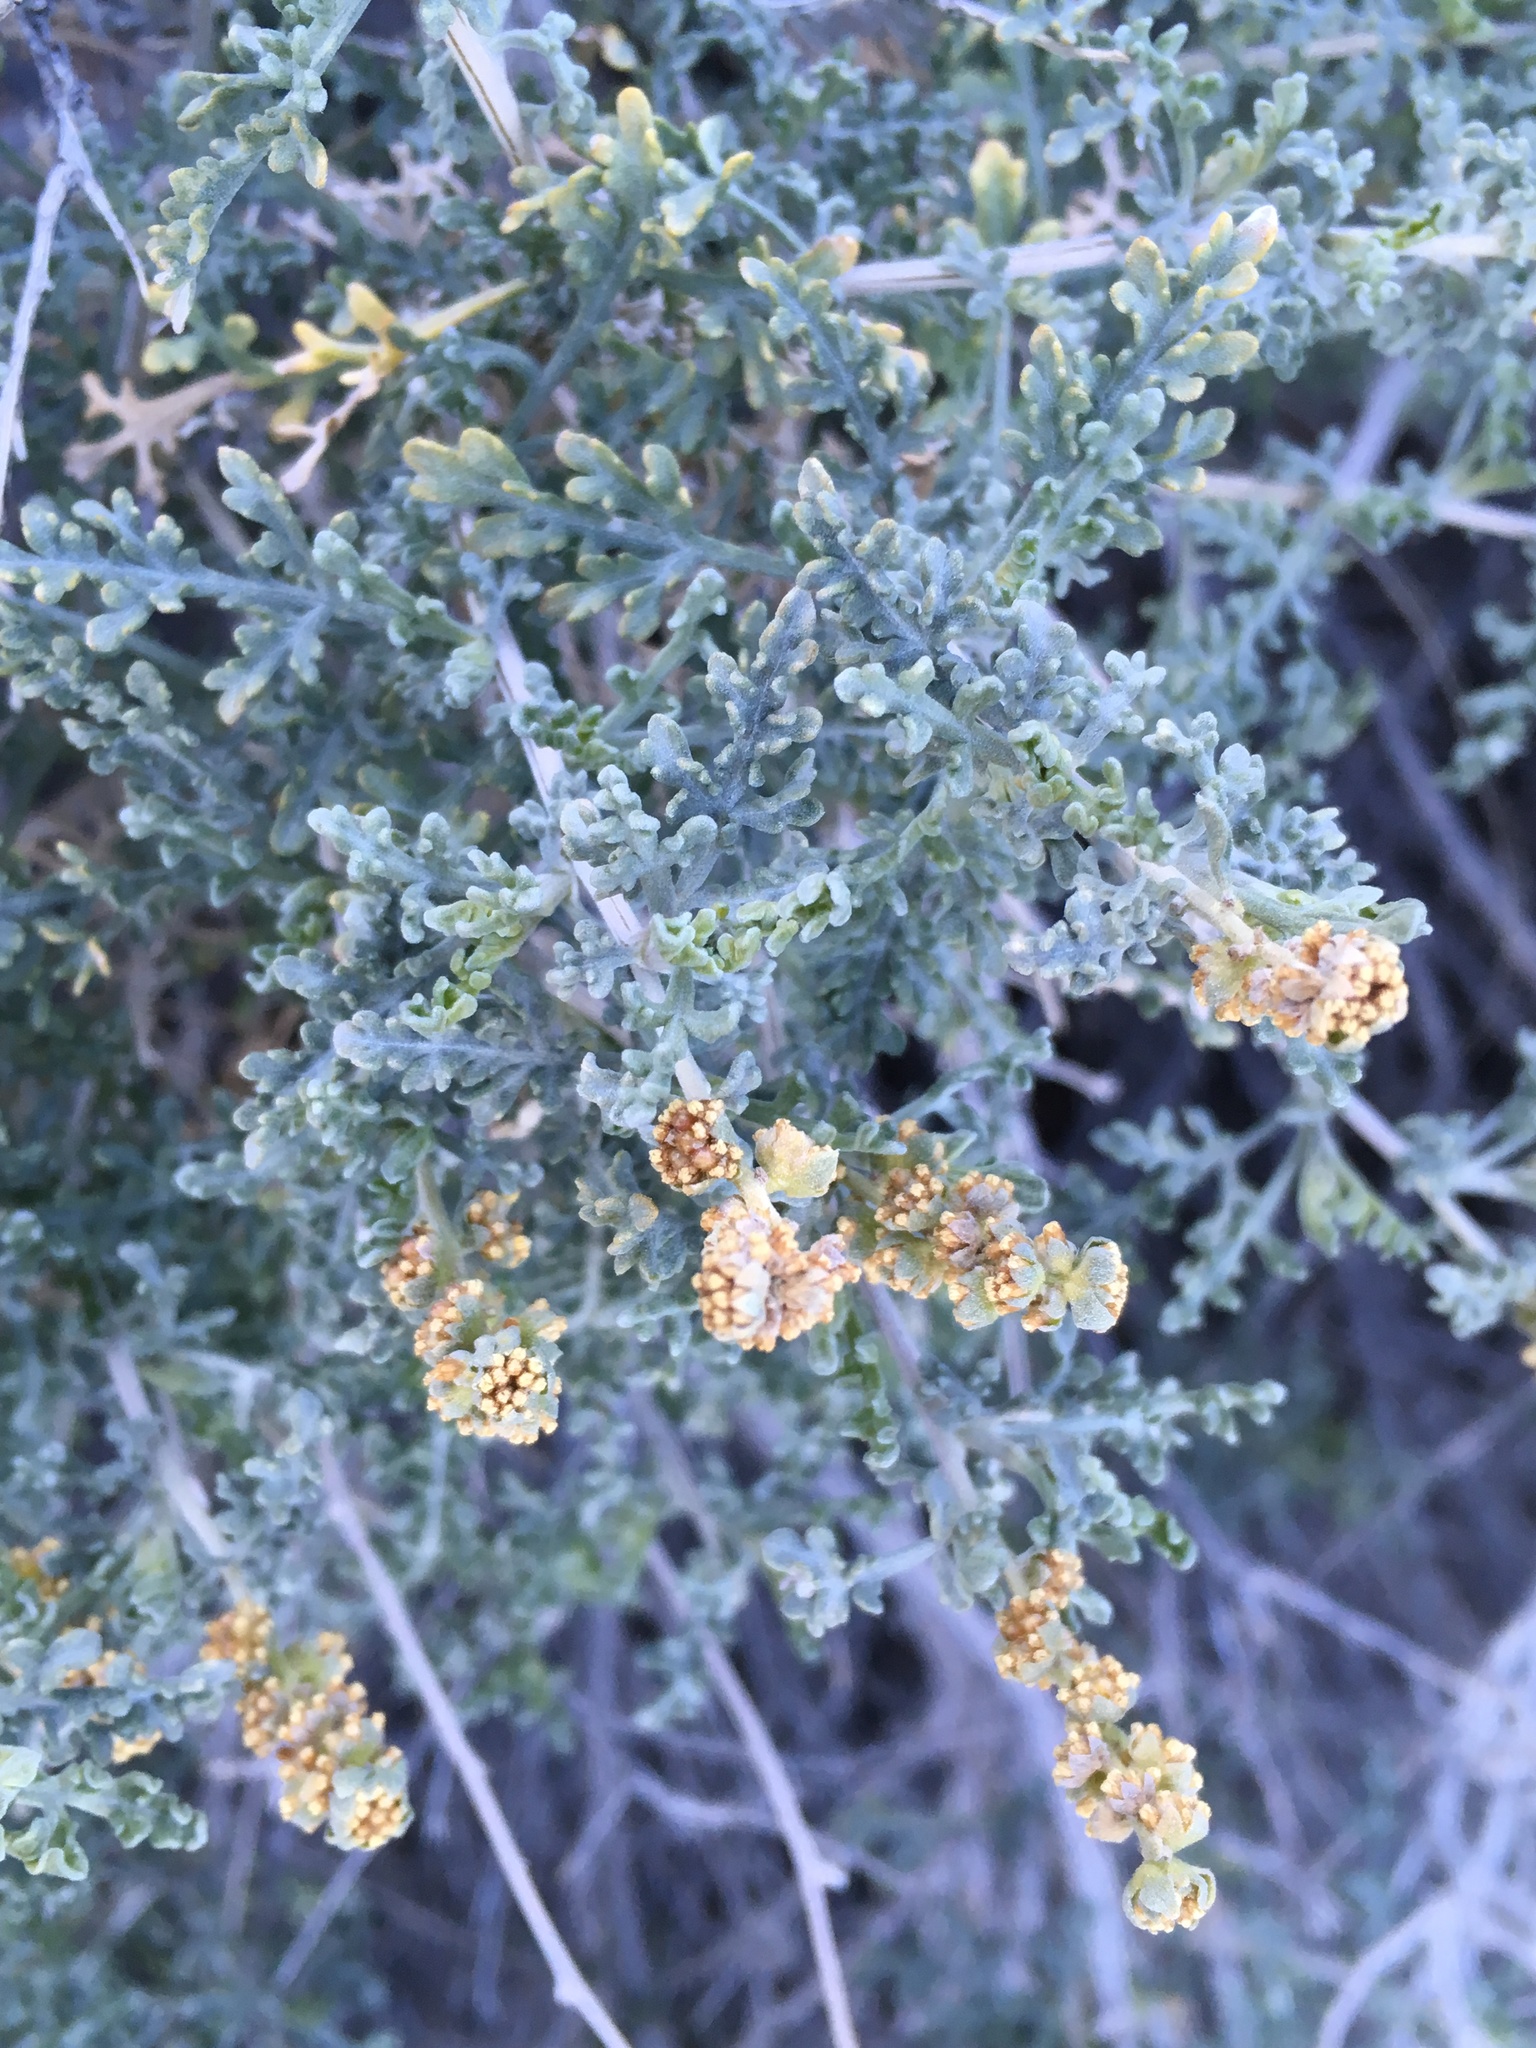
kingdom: Plantae
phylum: Tracheophyta
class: Magnoliopsida
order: Asterales
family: Asteraceae
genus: Ambrosia
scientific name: Ambrosia dumosa
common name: Bur-sage
